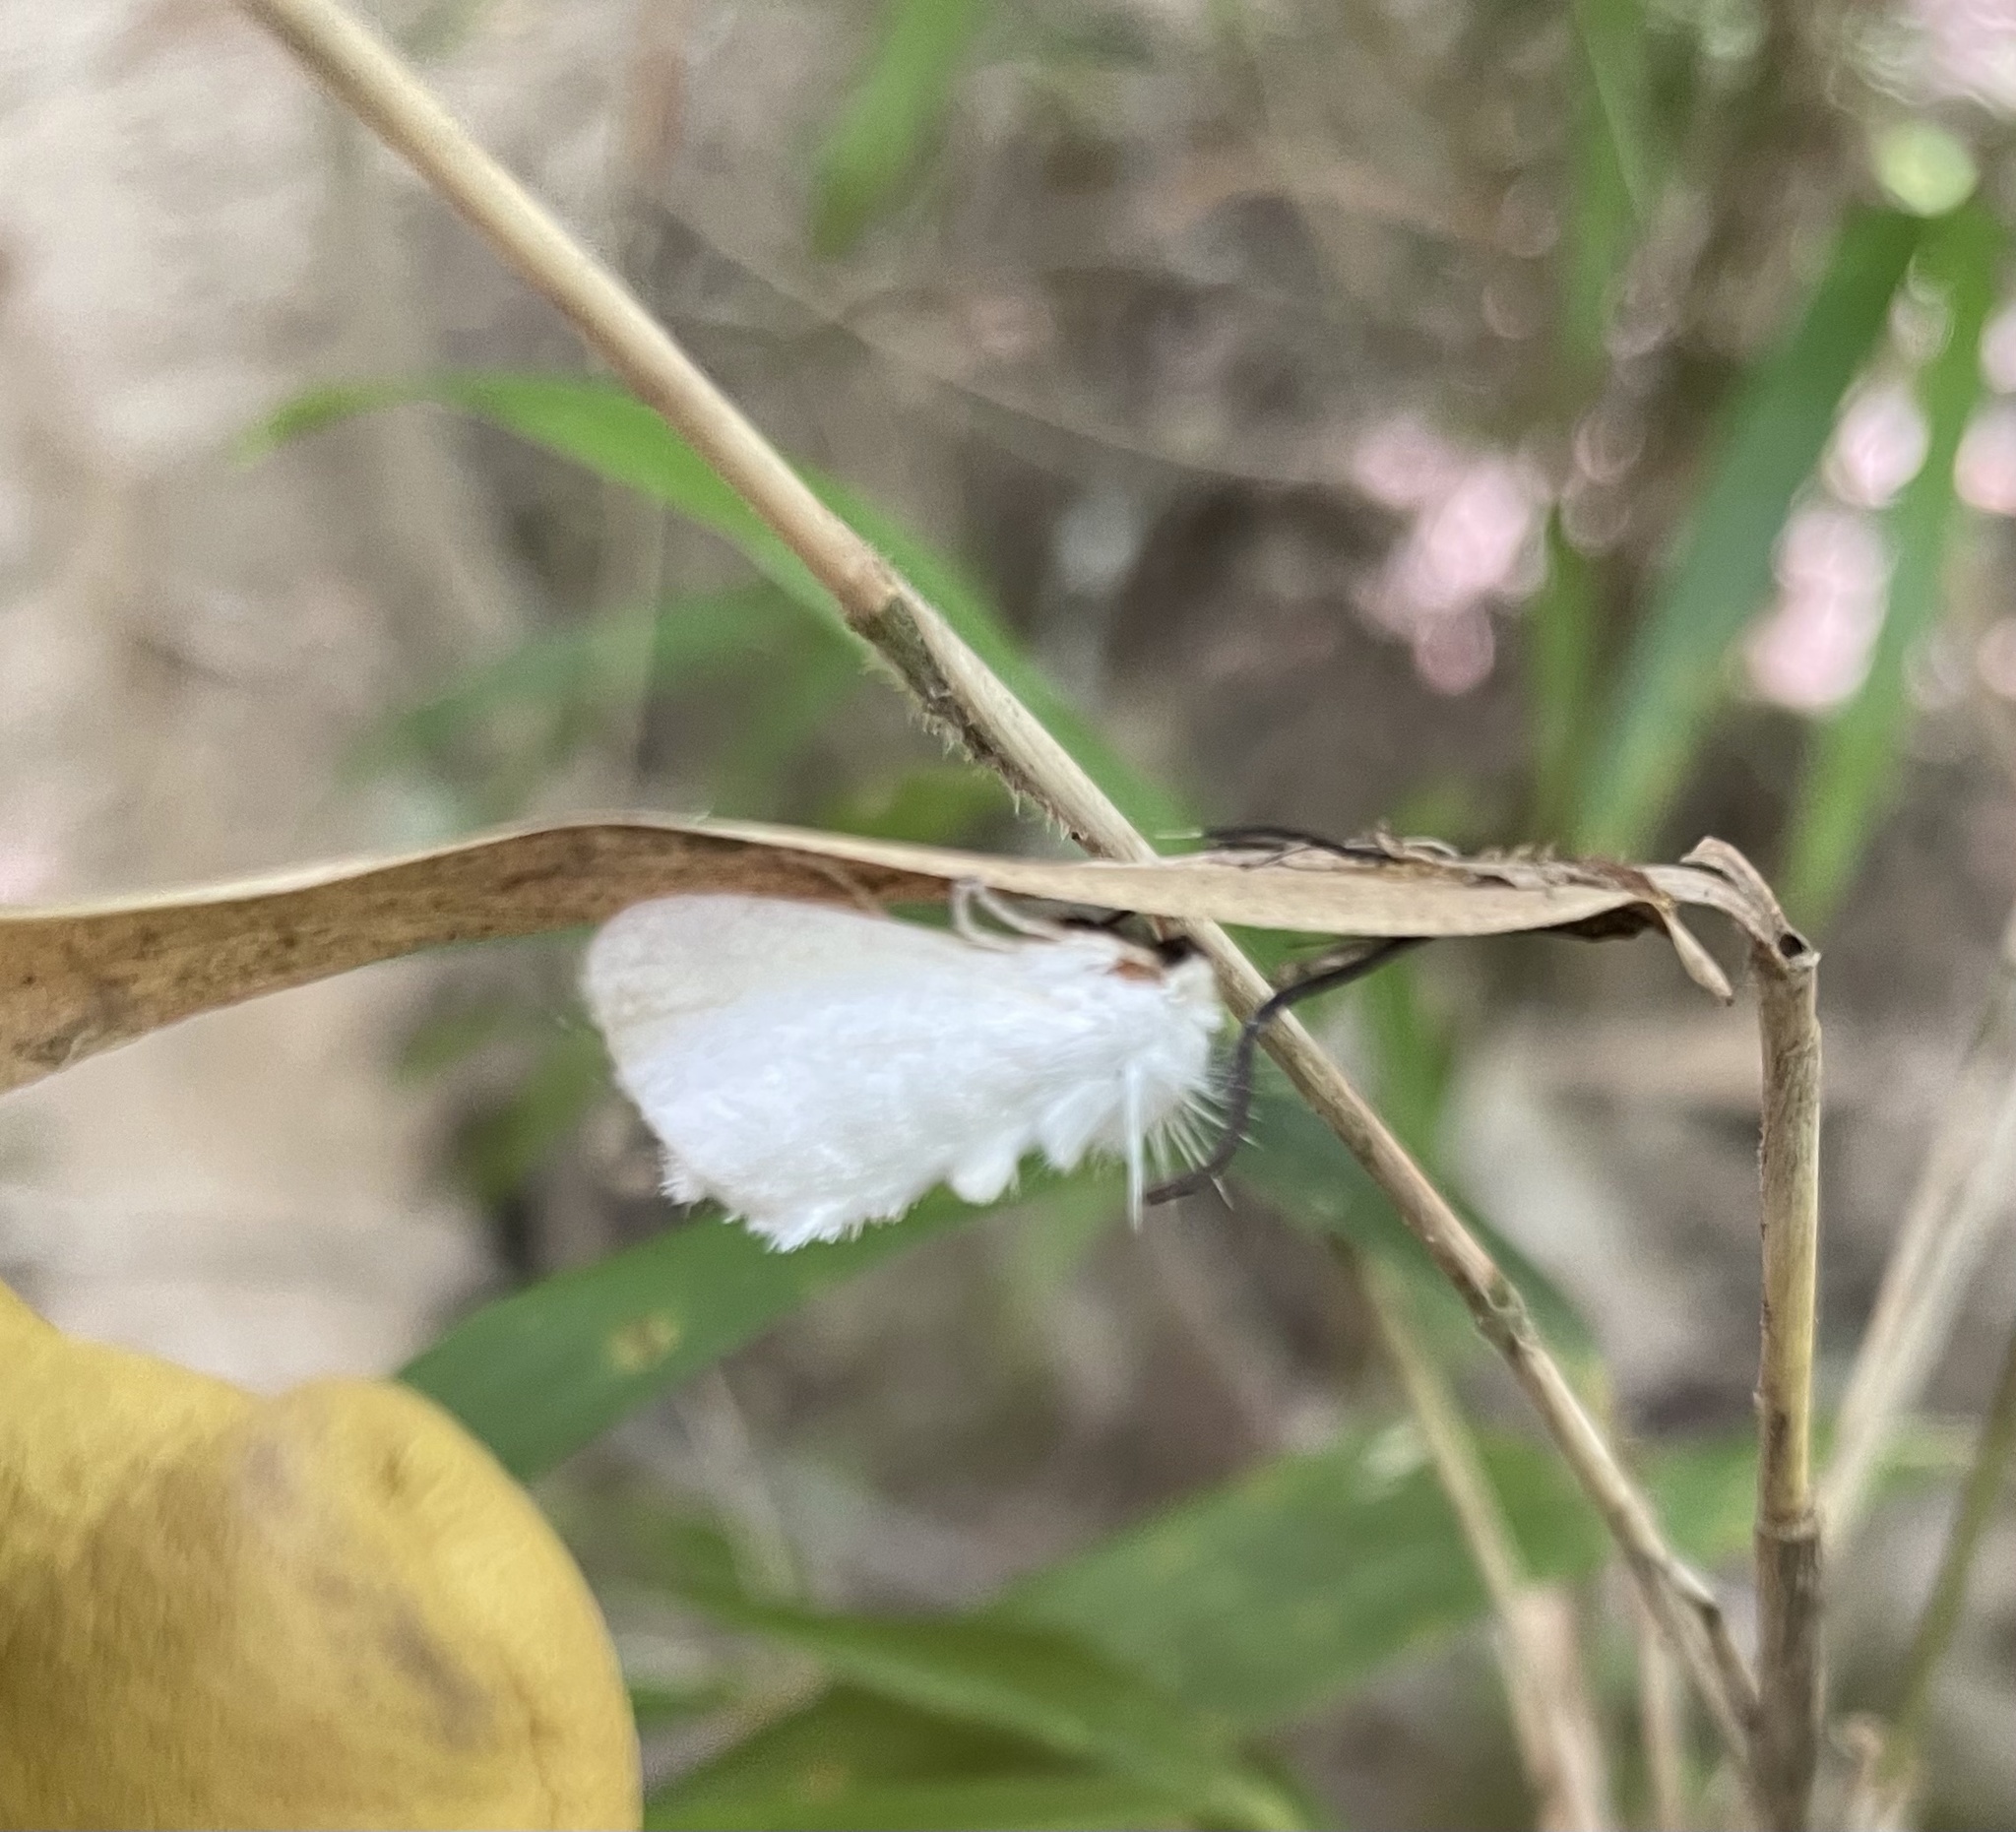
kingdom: Animalia
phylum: Arthropoda
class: Insecta
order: Lepidoptera
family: Megalopygidae
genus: Norape
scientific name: Norape cretata
